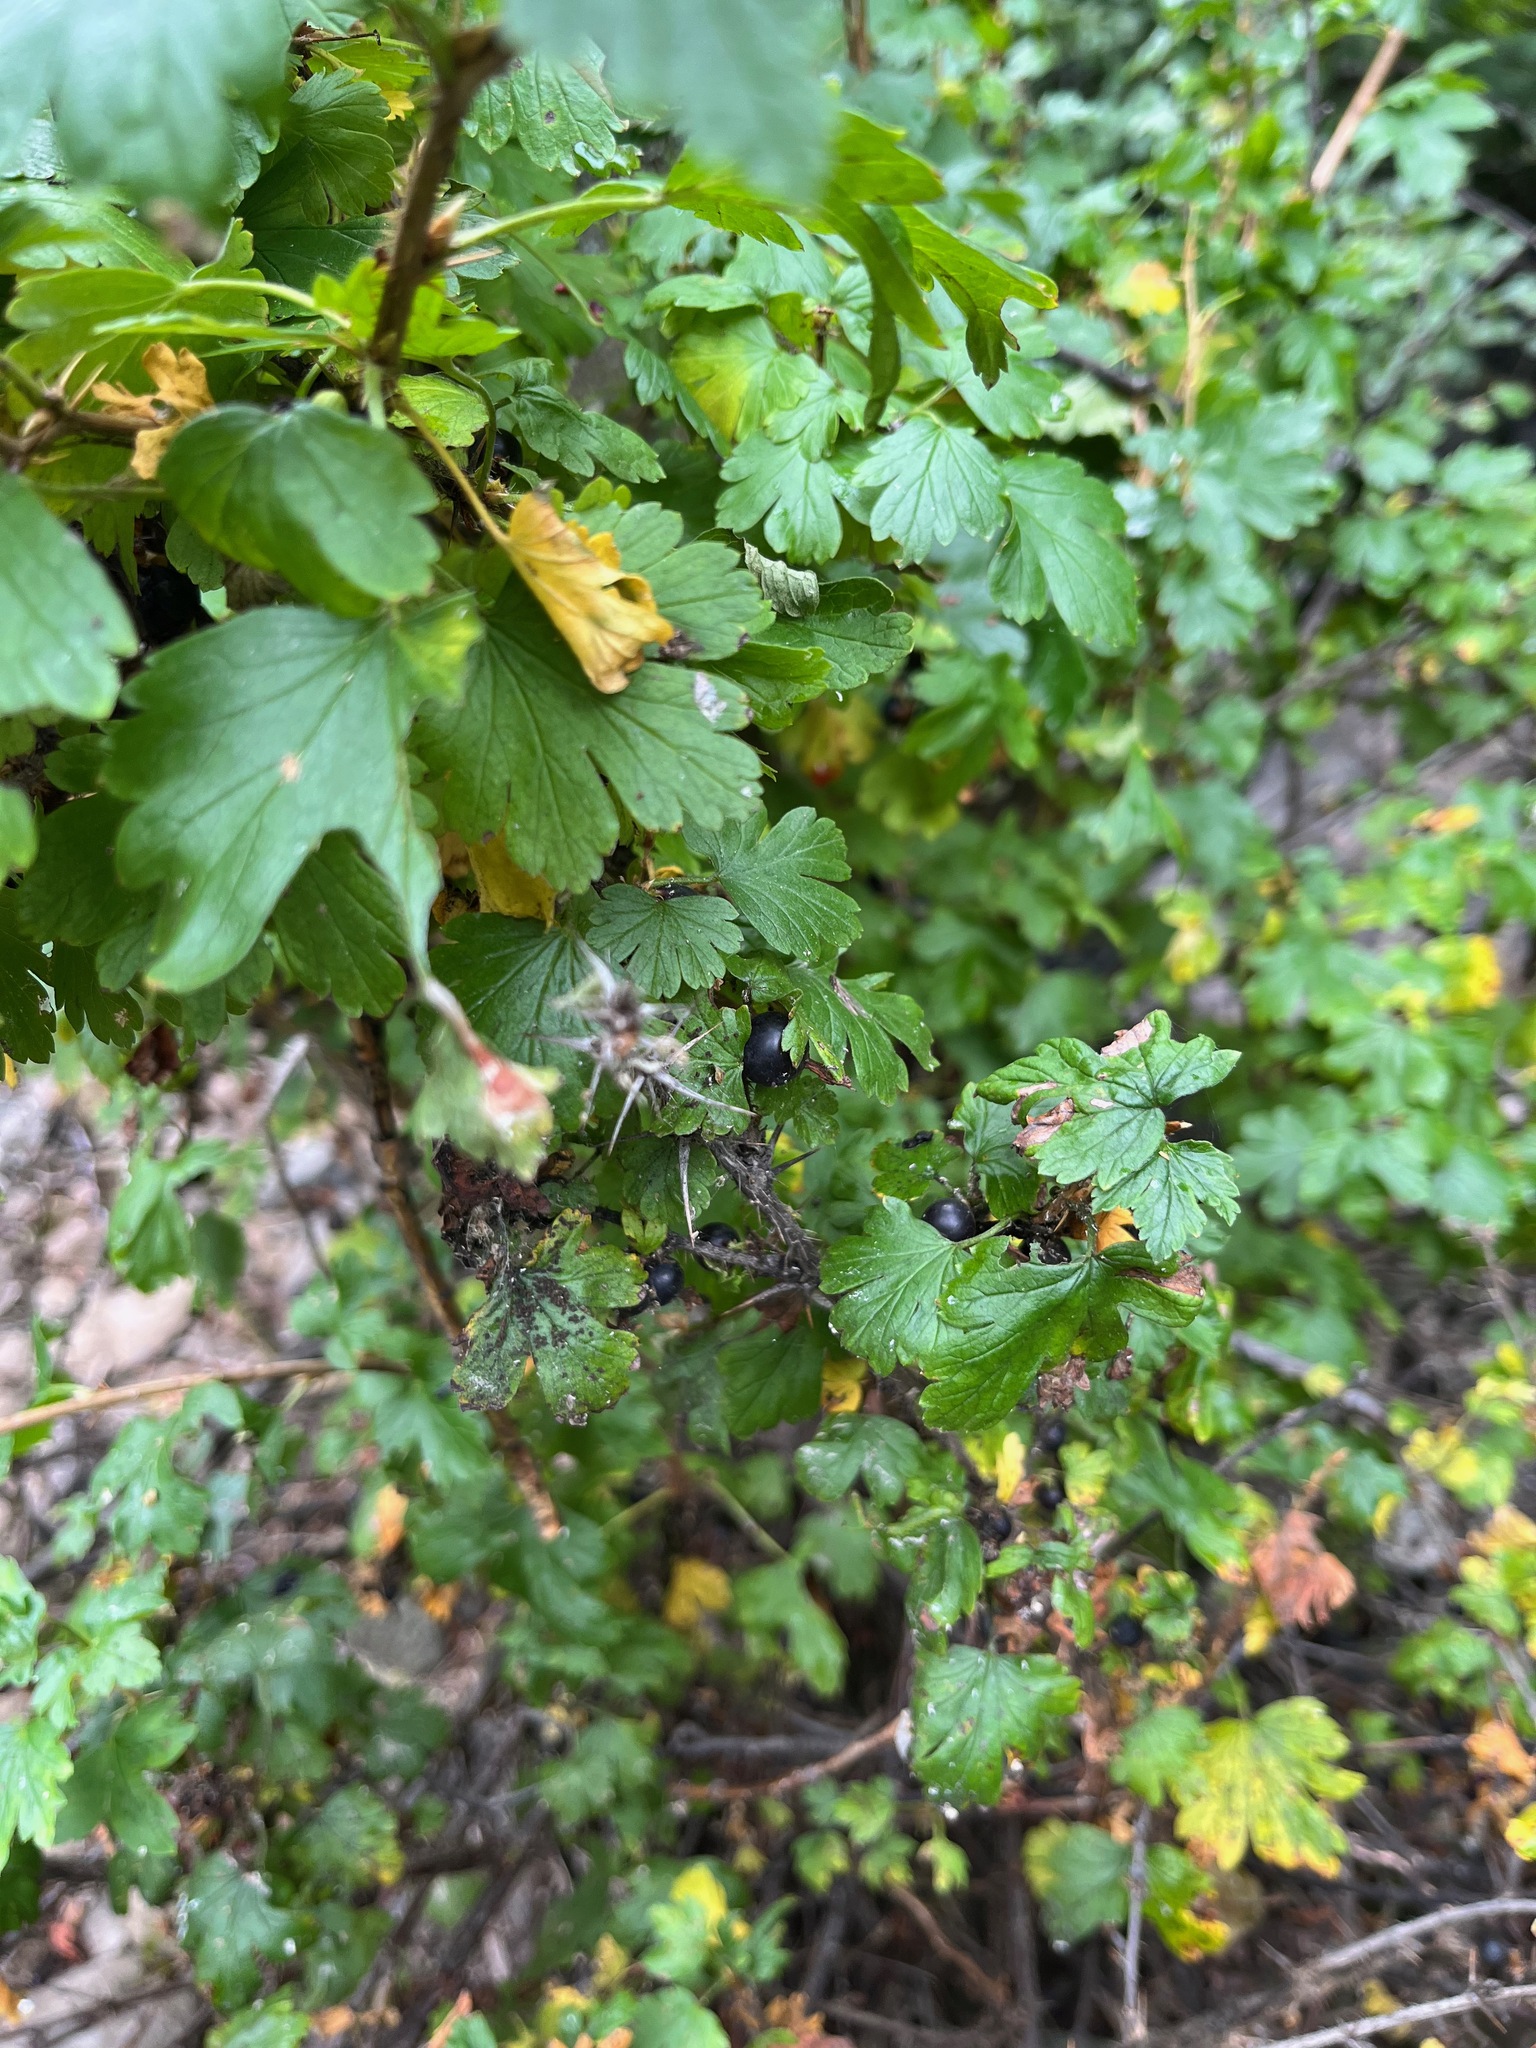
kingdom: Plantae
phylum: Tracheophyta
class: Magnoliopsida
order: Saxifragales
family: Grossulariaceae
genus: Ribes
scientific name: Ribes lacustre
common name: Black gooseberry
